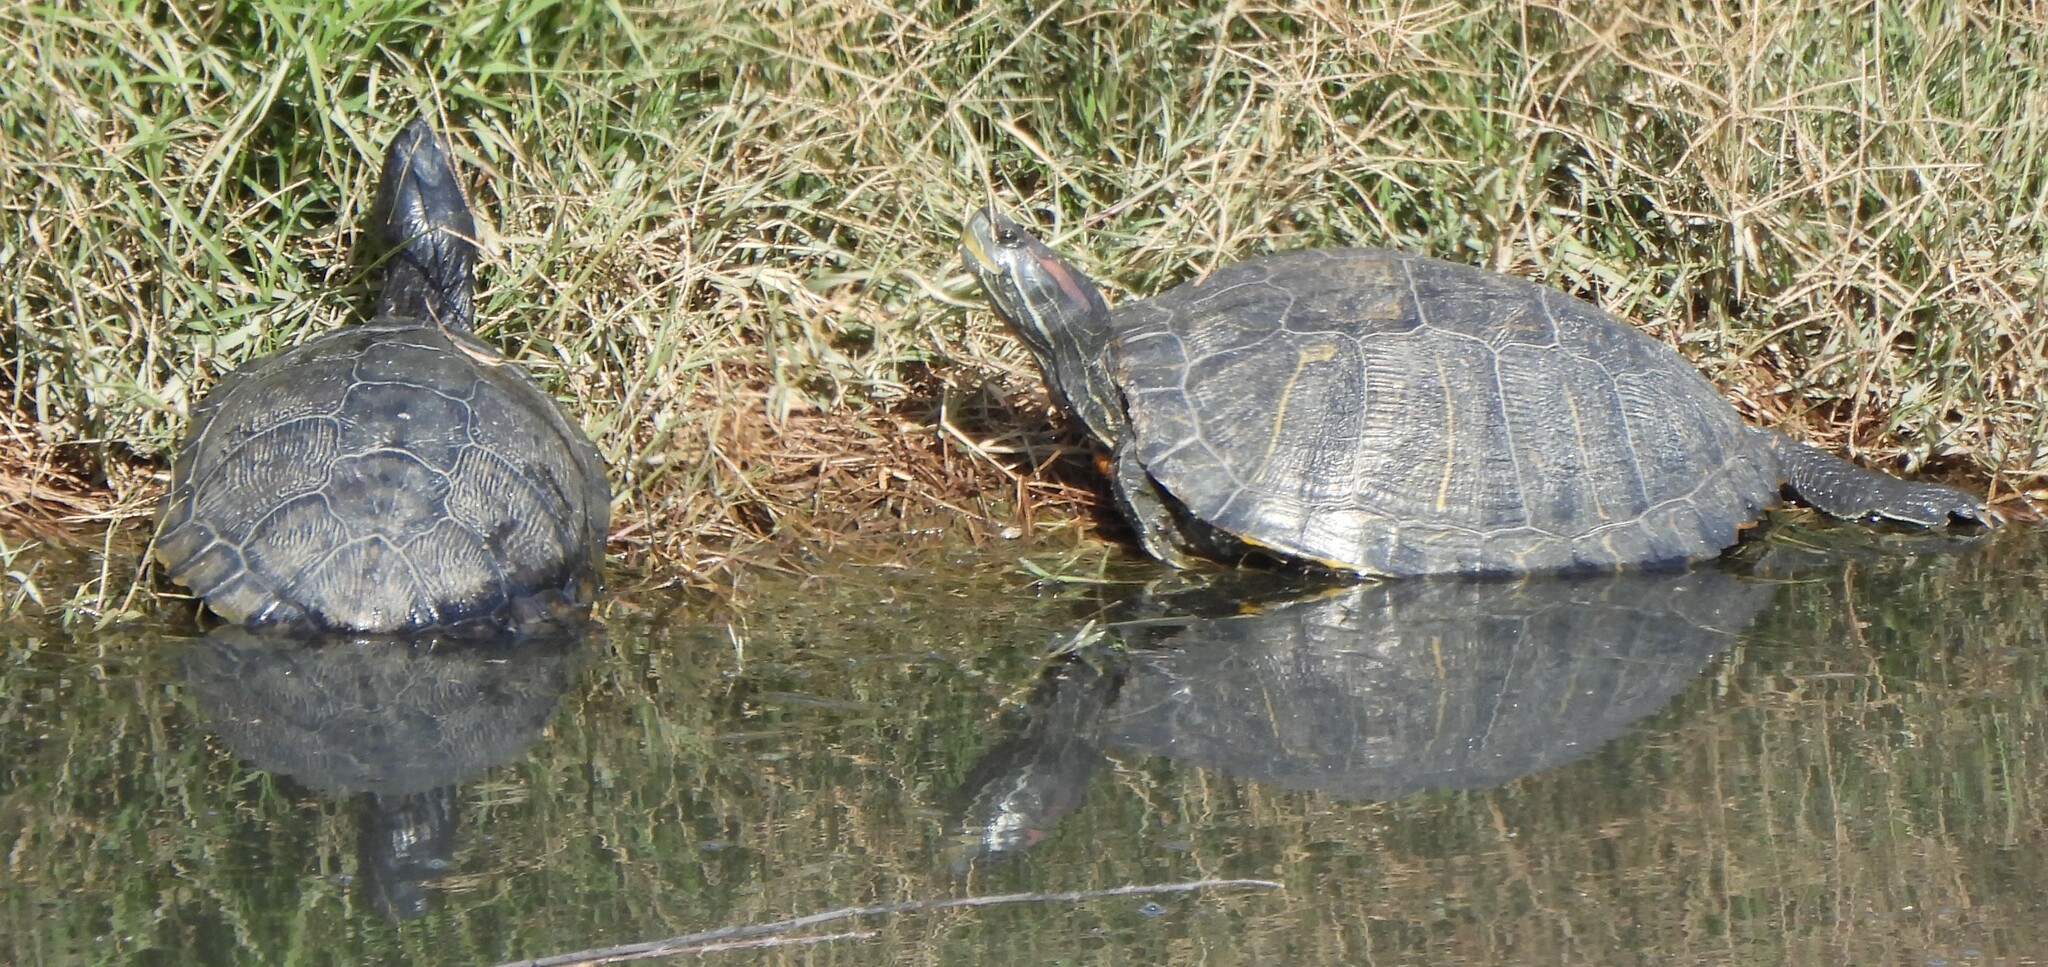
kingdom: Animalia
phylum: Chordata
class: Testudines
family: Emydidae
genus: Trachemys
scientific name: Trachemys scripta
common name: Slider
